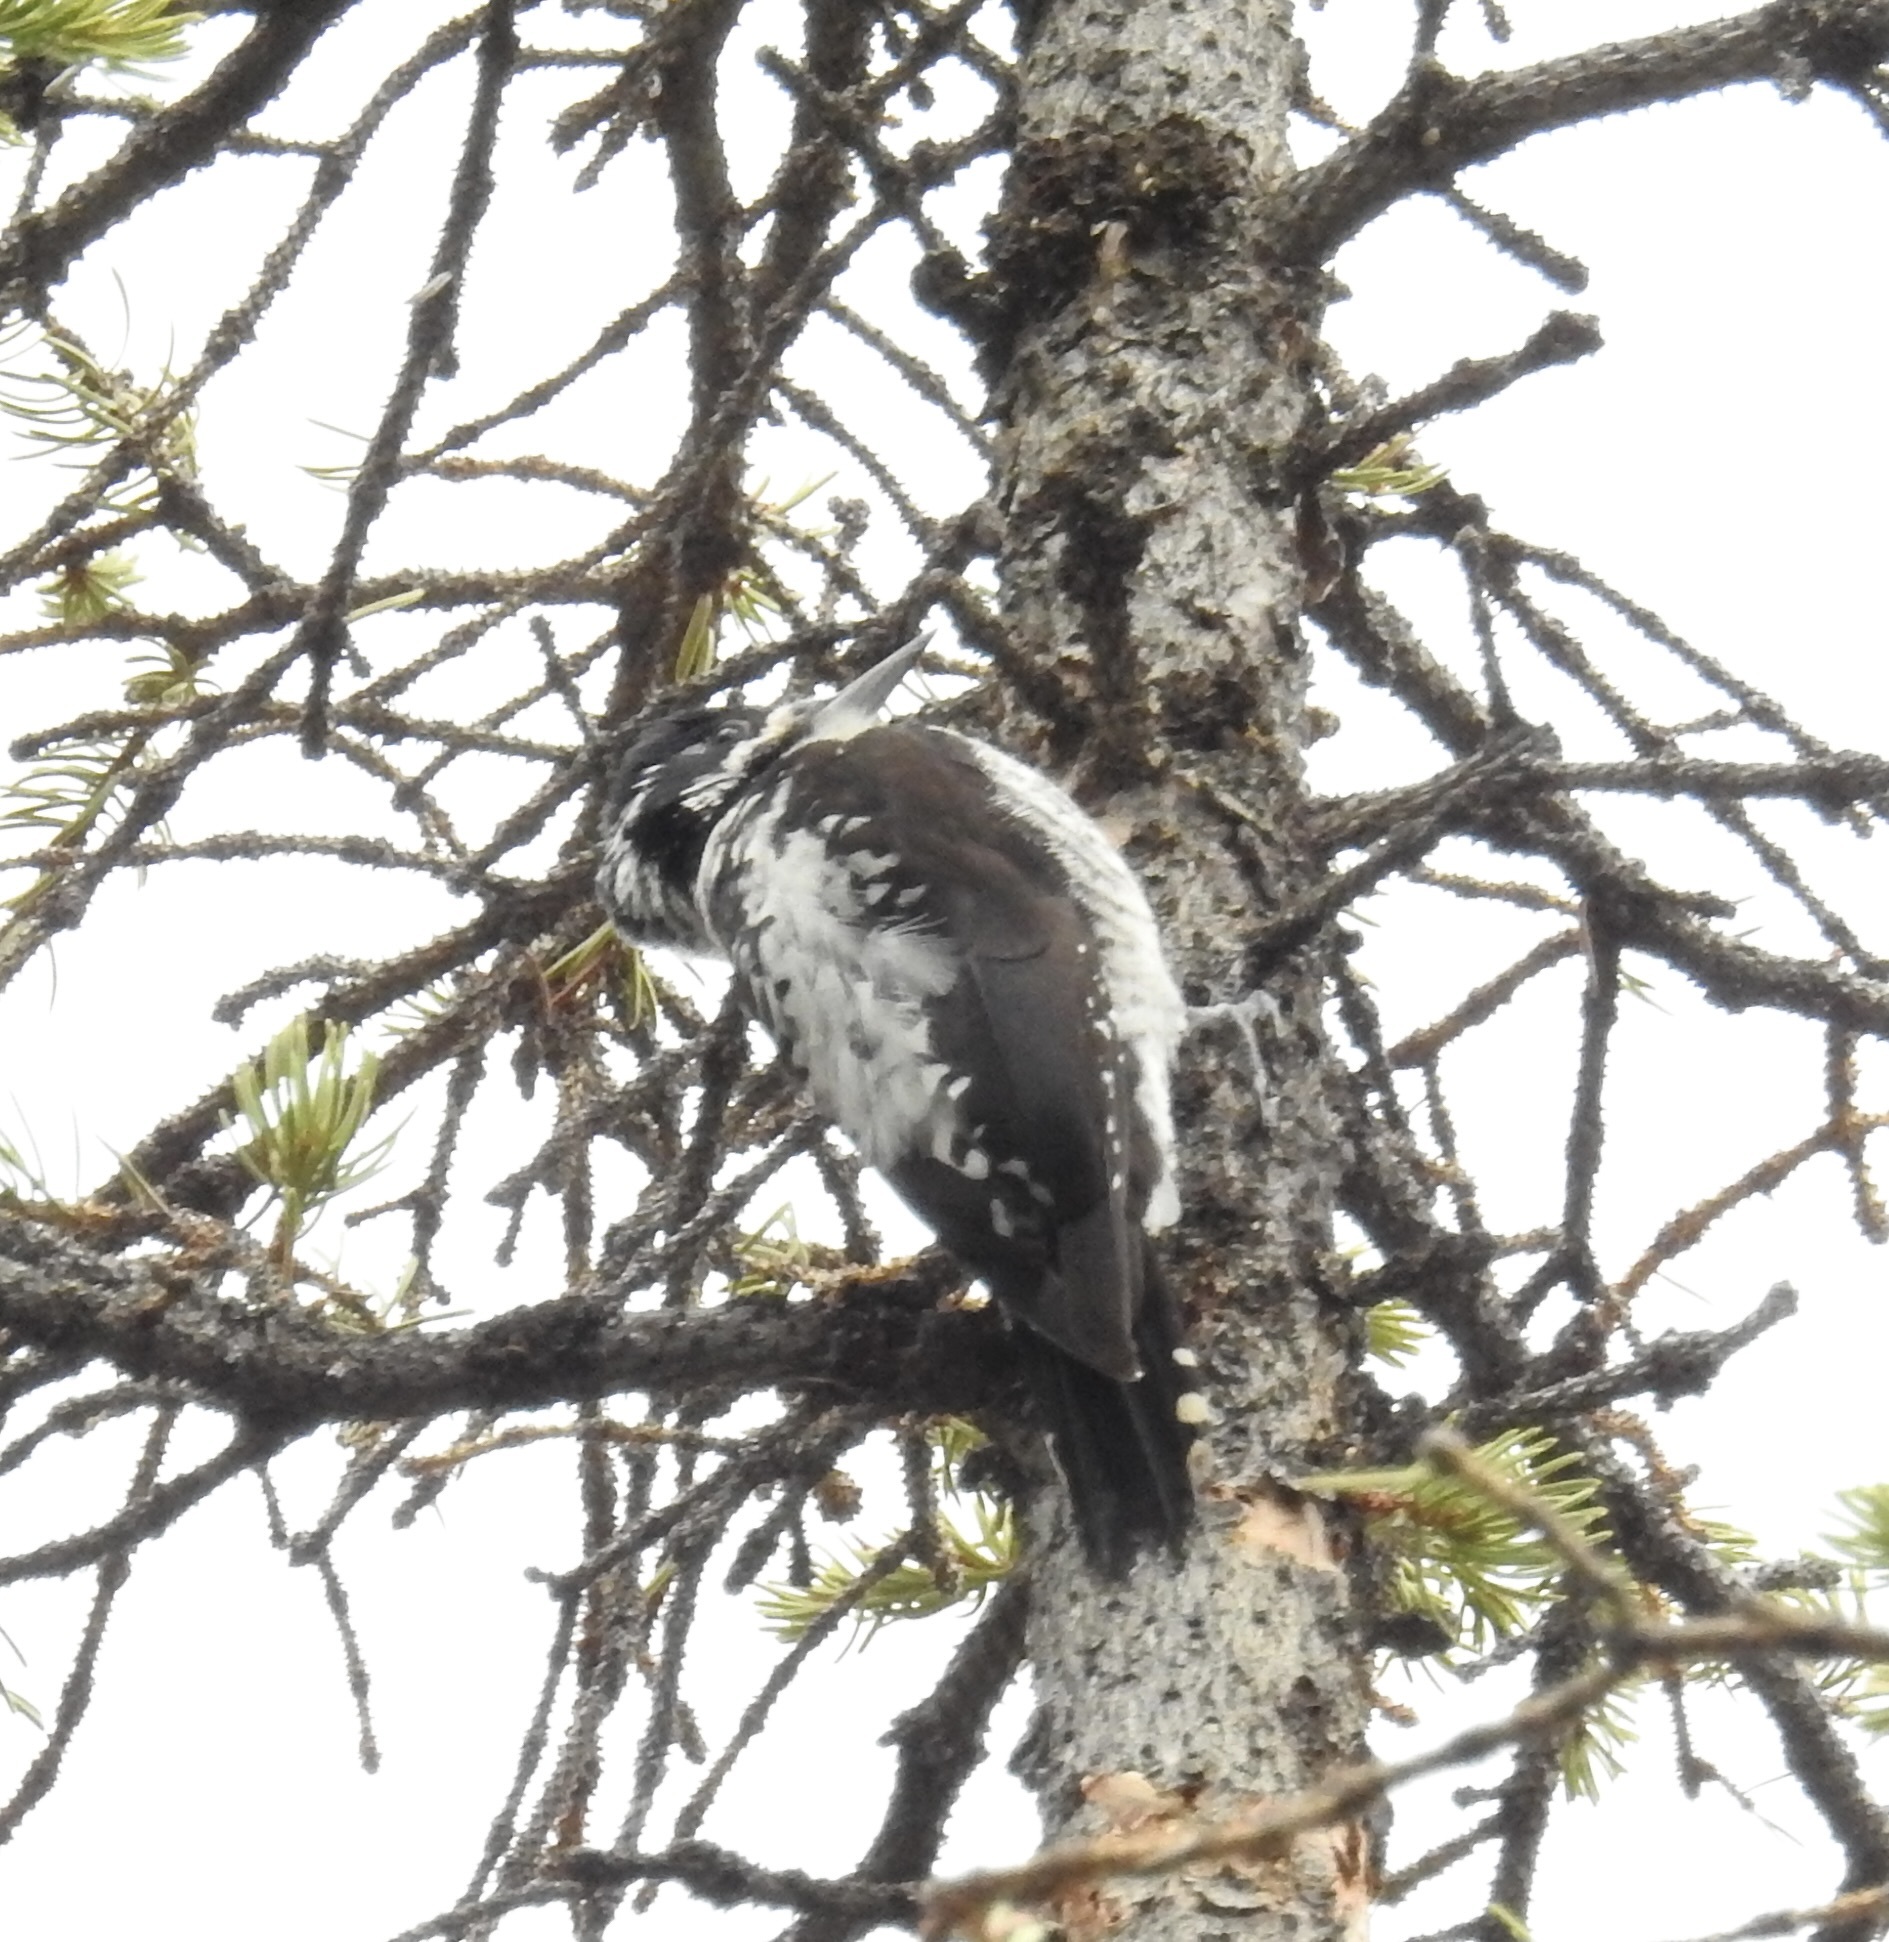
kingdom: Animalia
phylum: Chordata
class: Aves
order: Piciformes
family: Picidae
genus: Picoides
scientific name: Picoides dorsalis
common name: American three-toed woodpecker
